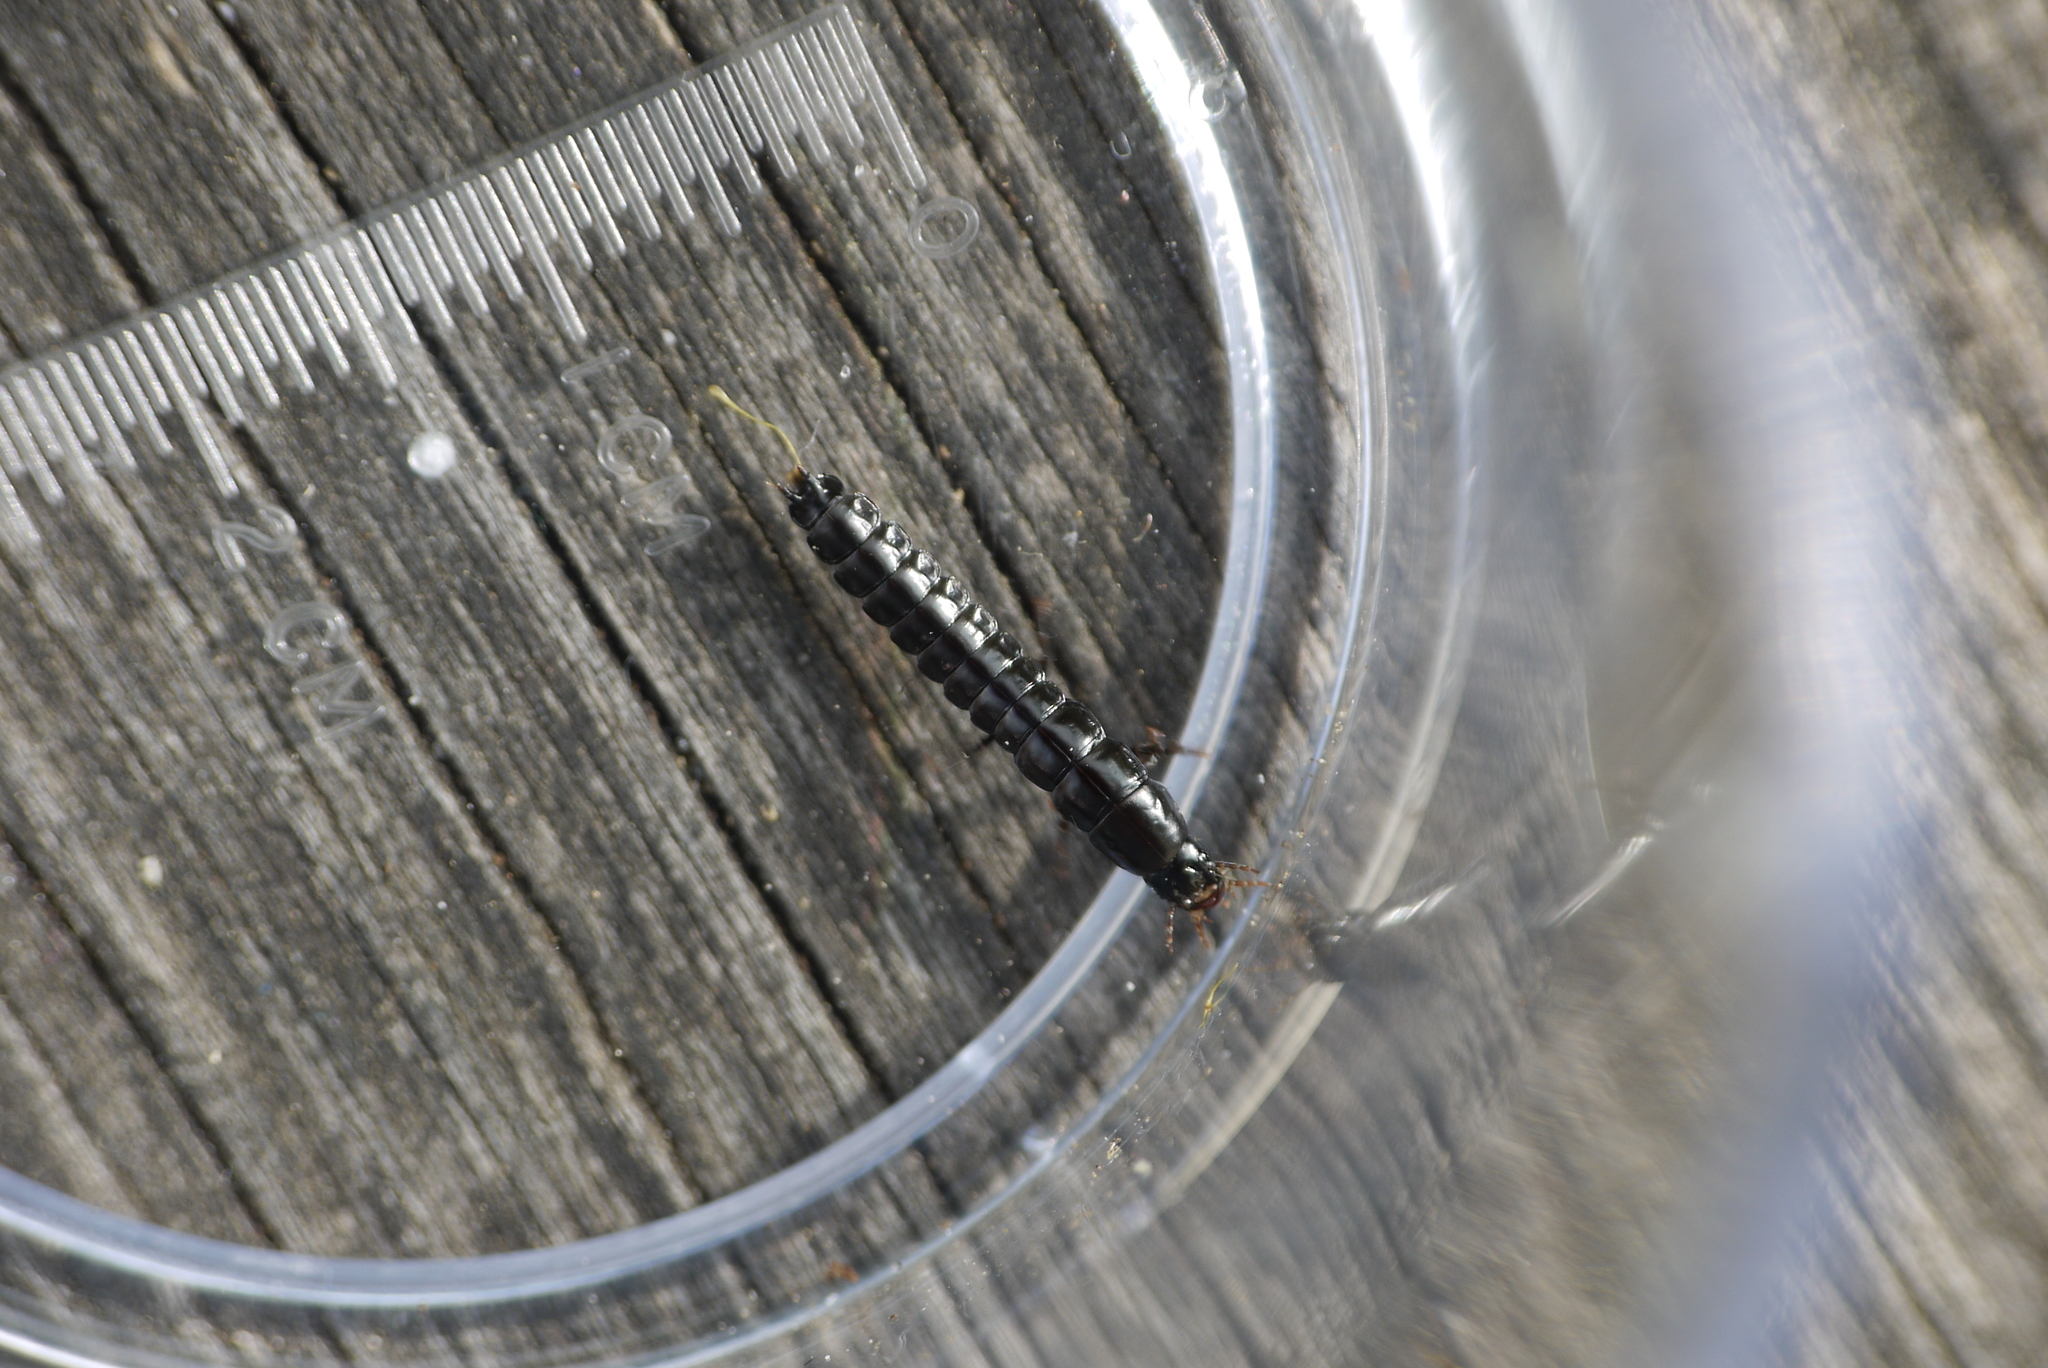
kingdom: Animalia
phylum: Arthropoda
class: Insecta
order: Coleoptera
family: Carabidae
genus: Carabus
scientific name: Carabus
